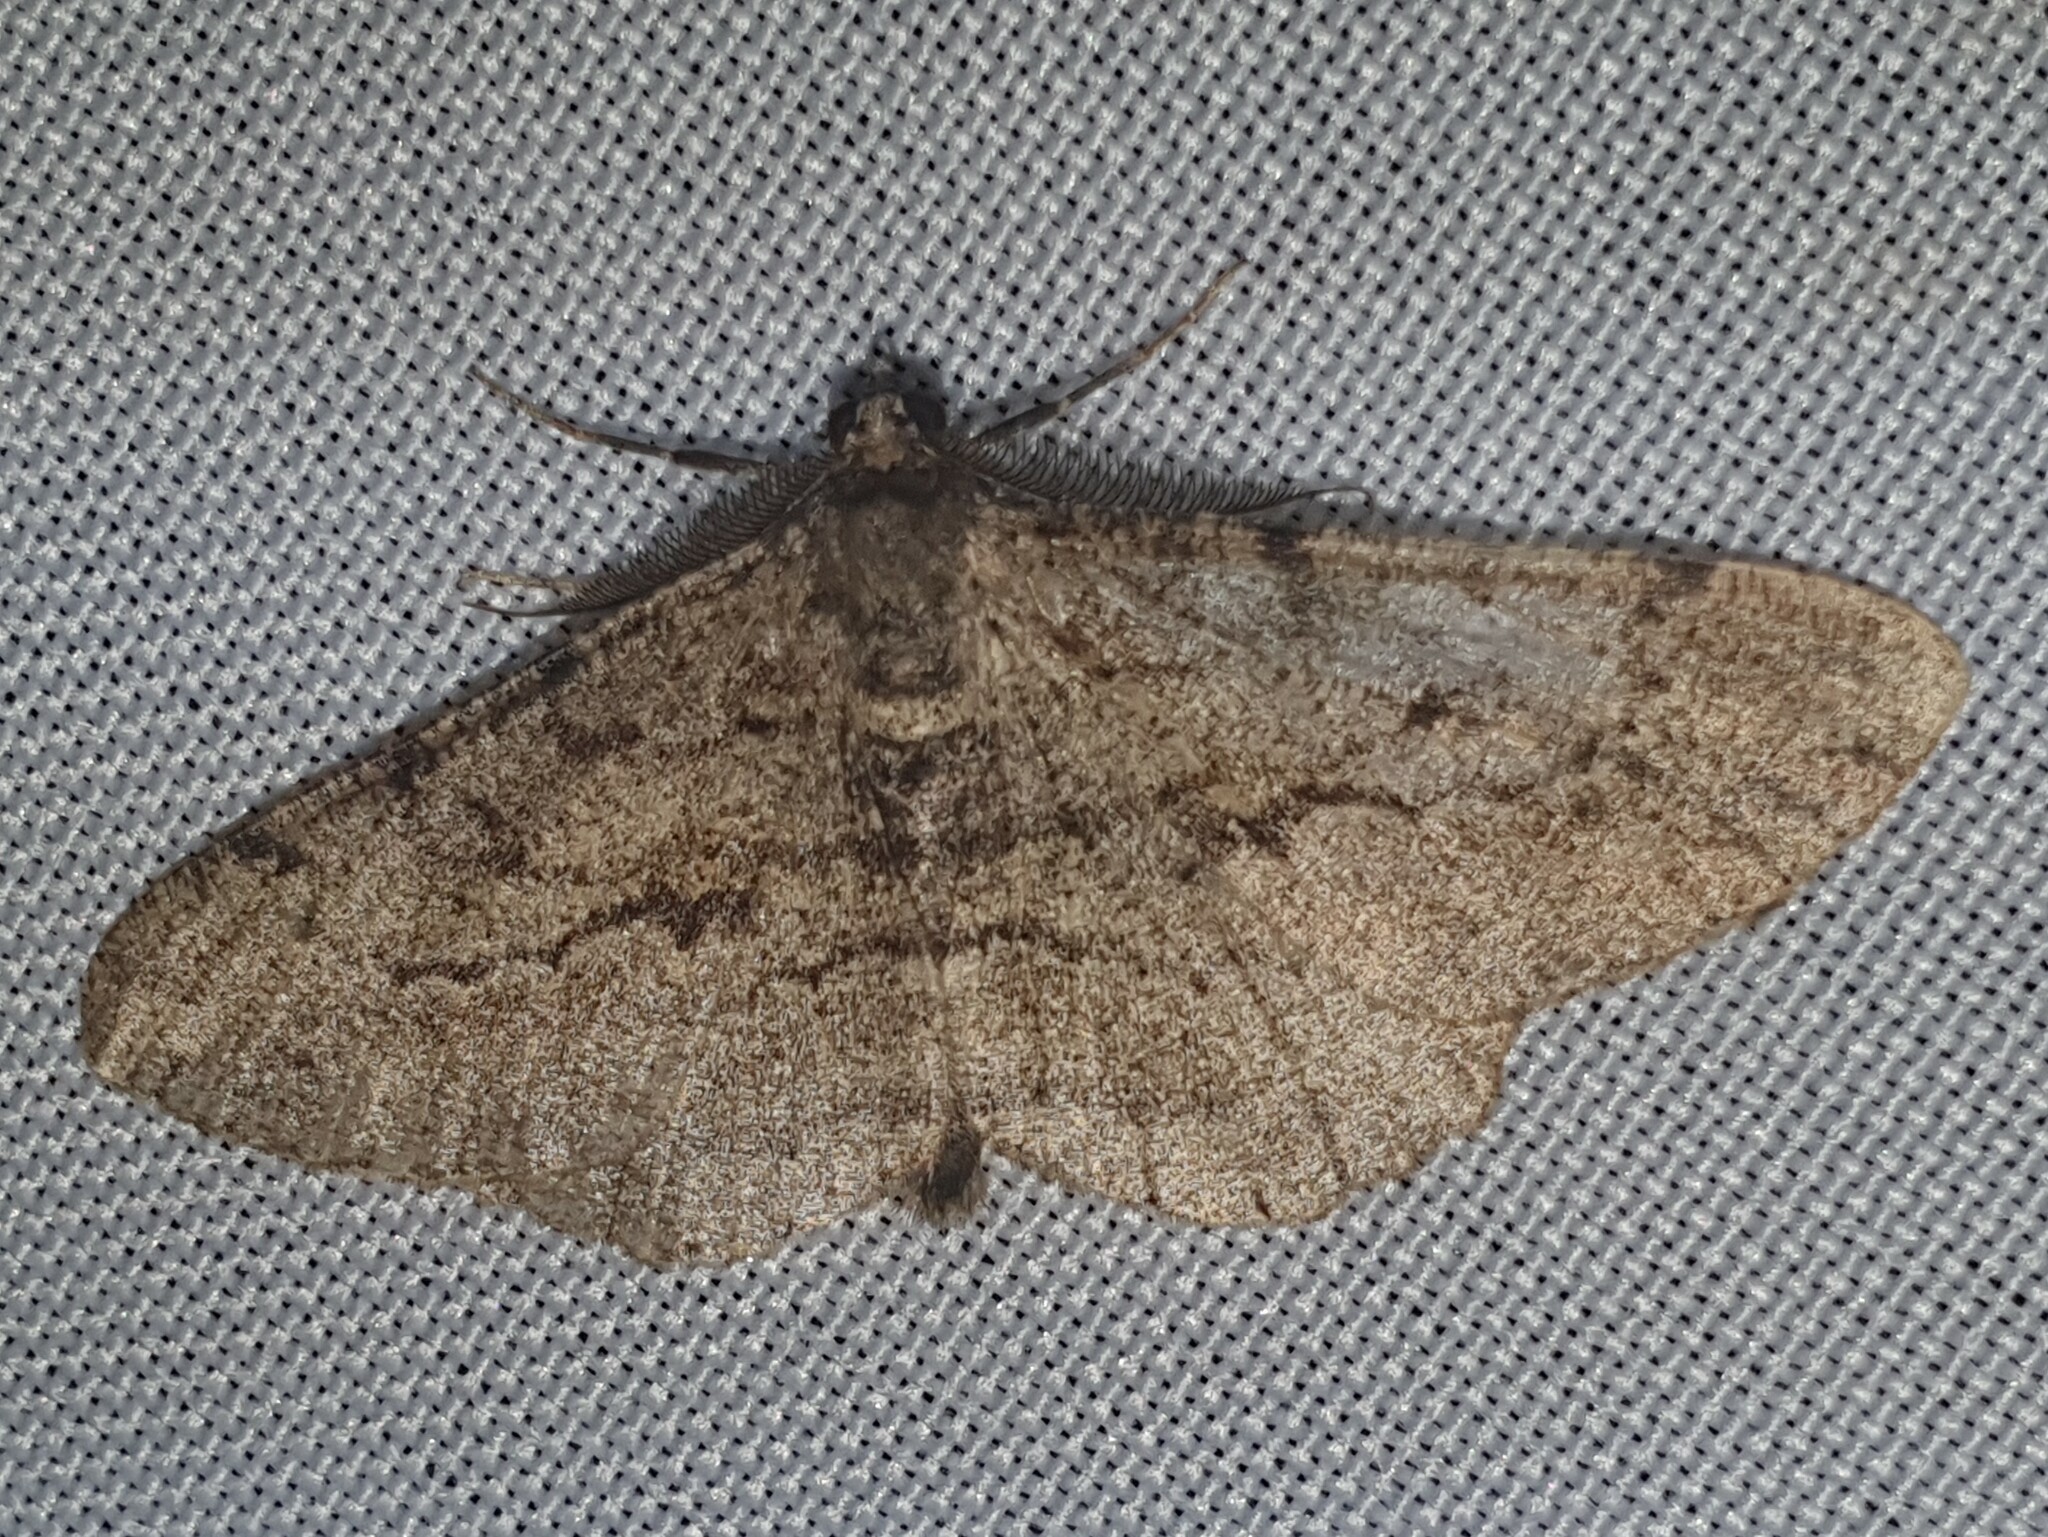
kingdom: Animalia
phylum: Arthropoda
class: Insecta
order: Lepidoptera
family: Geometridae
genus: Peribatodes
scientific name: Peribatodes rhomboidaria
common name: Willow beauty
